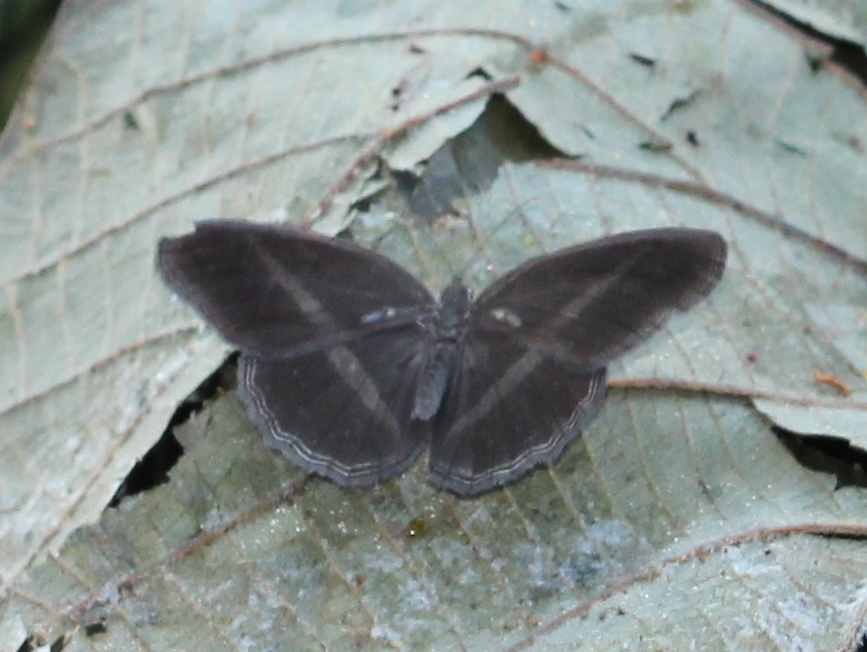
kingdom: Animalia
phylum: Arthropoda
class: Insecta
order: Lepidoptera
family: Nymphalidae
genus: Orsotriaena
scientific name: Orsotriaena medus
